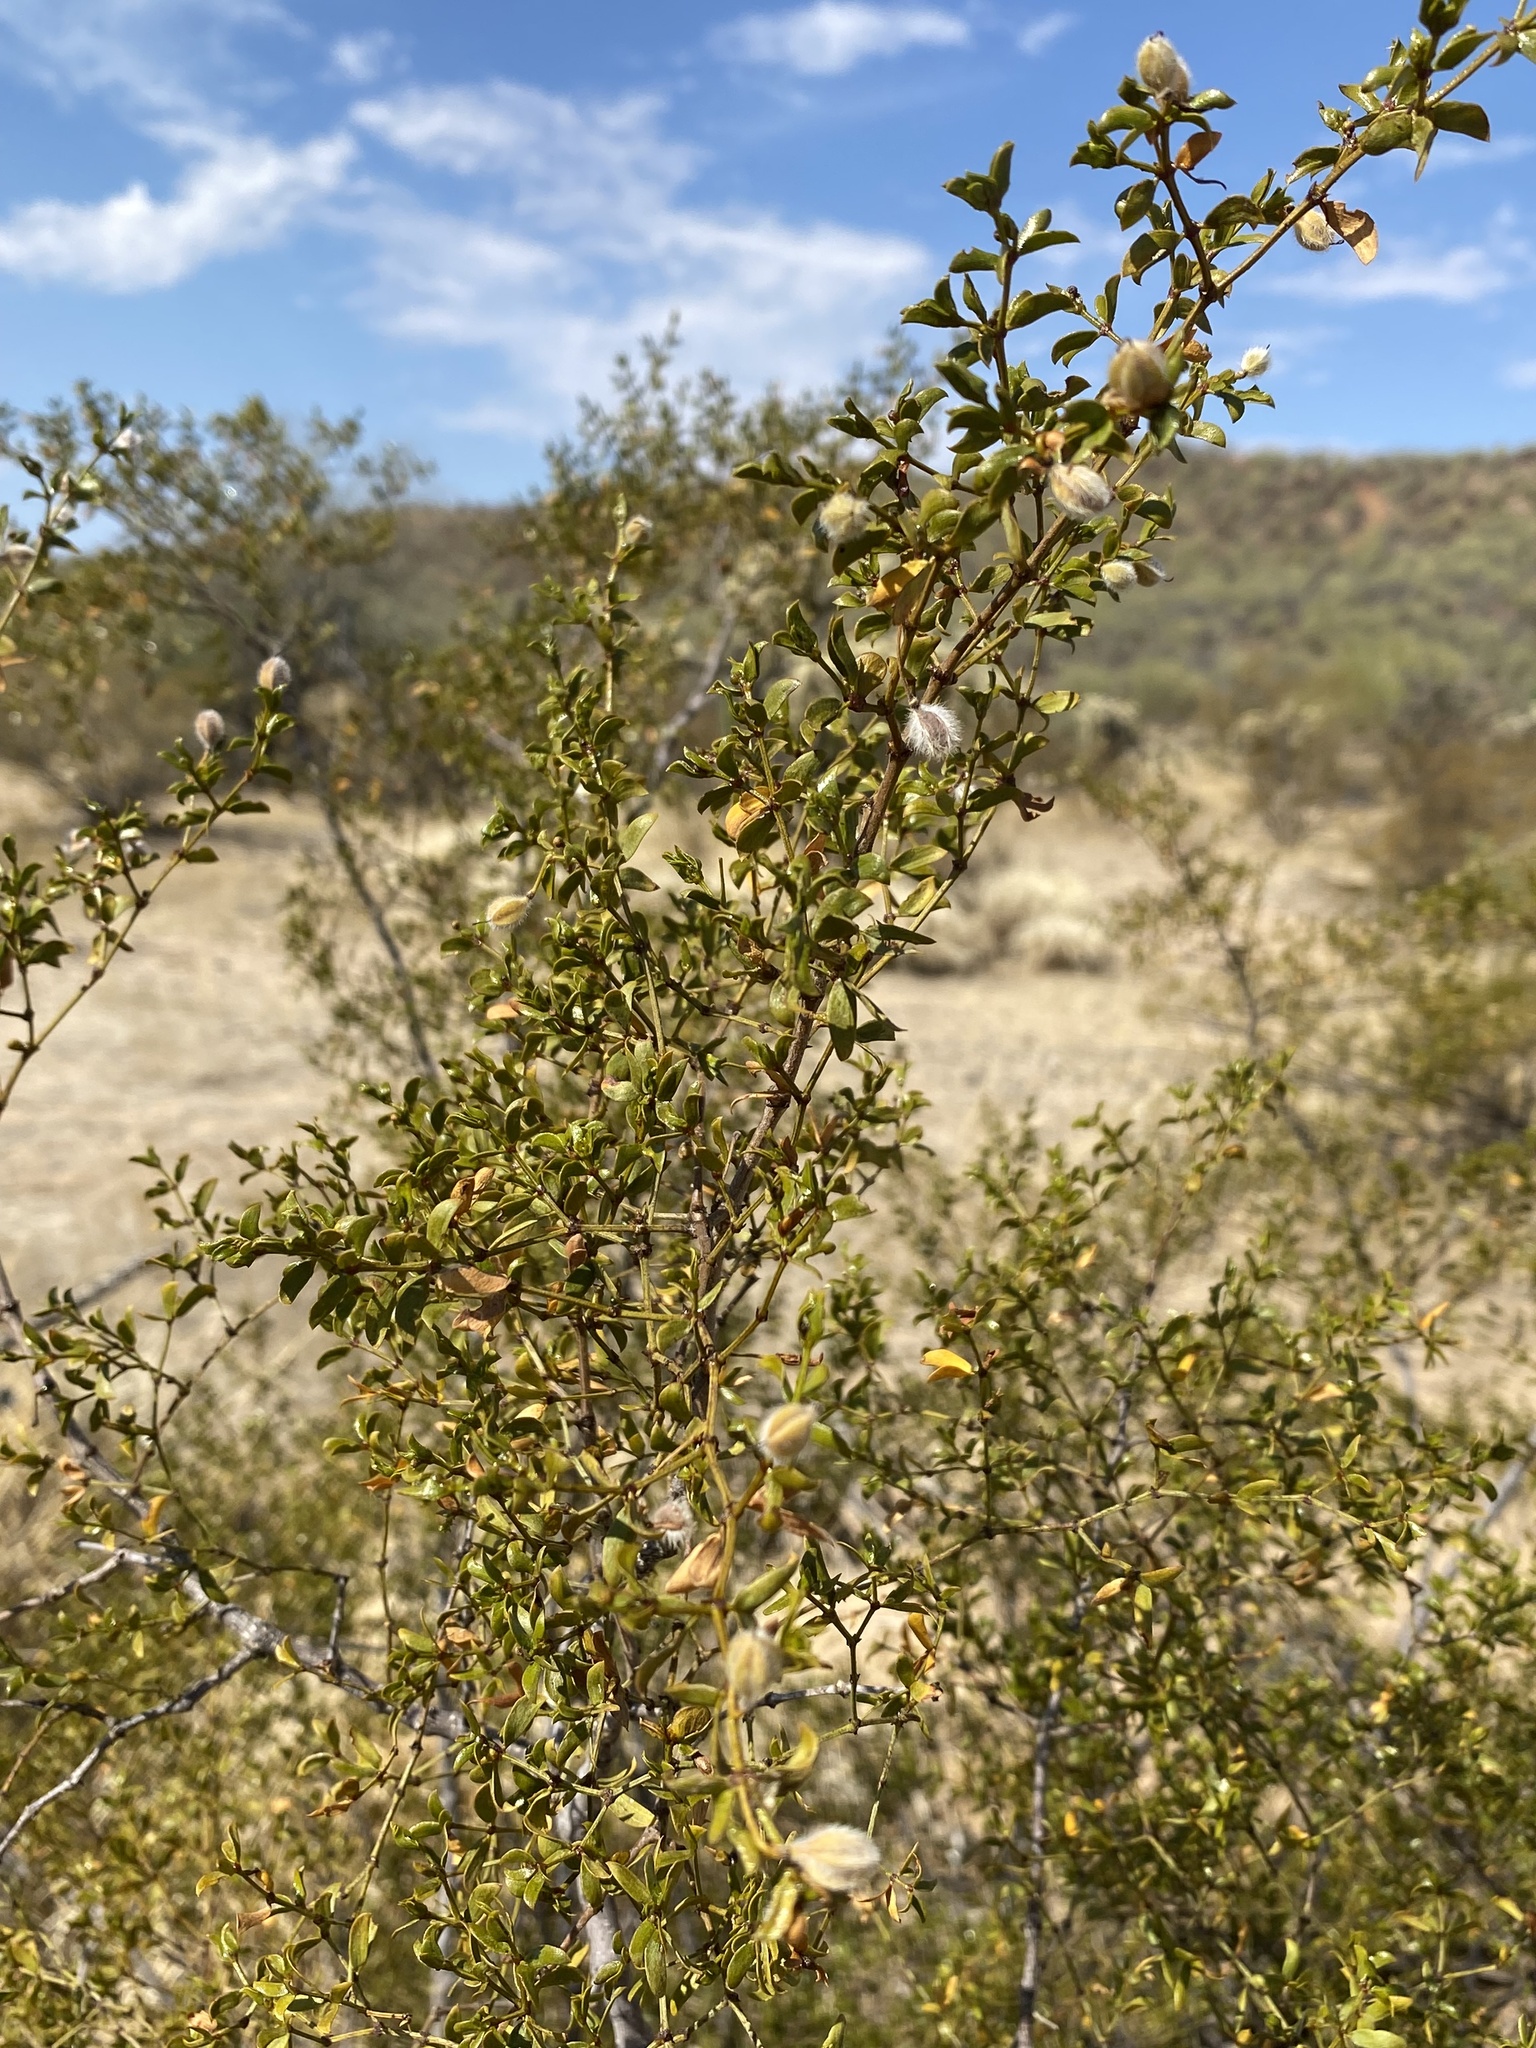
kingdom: Plantae
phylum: Tracheophyta
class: Magnoliopsida
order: Zygophyllales
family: Zygophyllaceae
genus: Larrea
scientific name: Larrea tridentata
